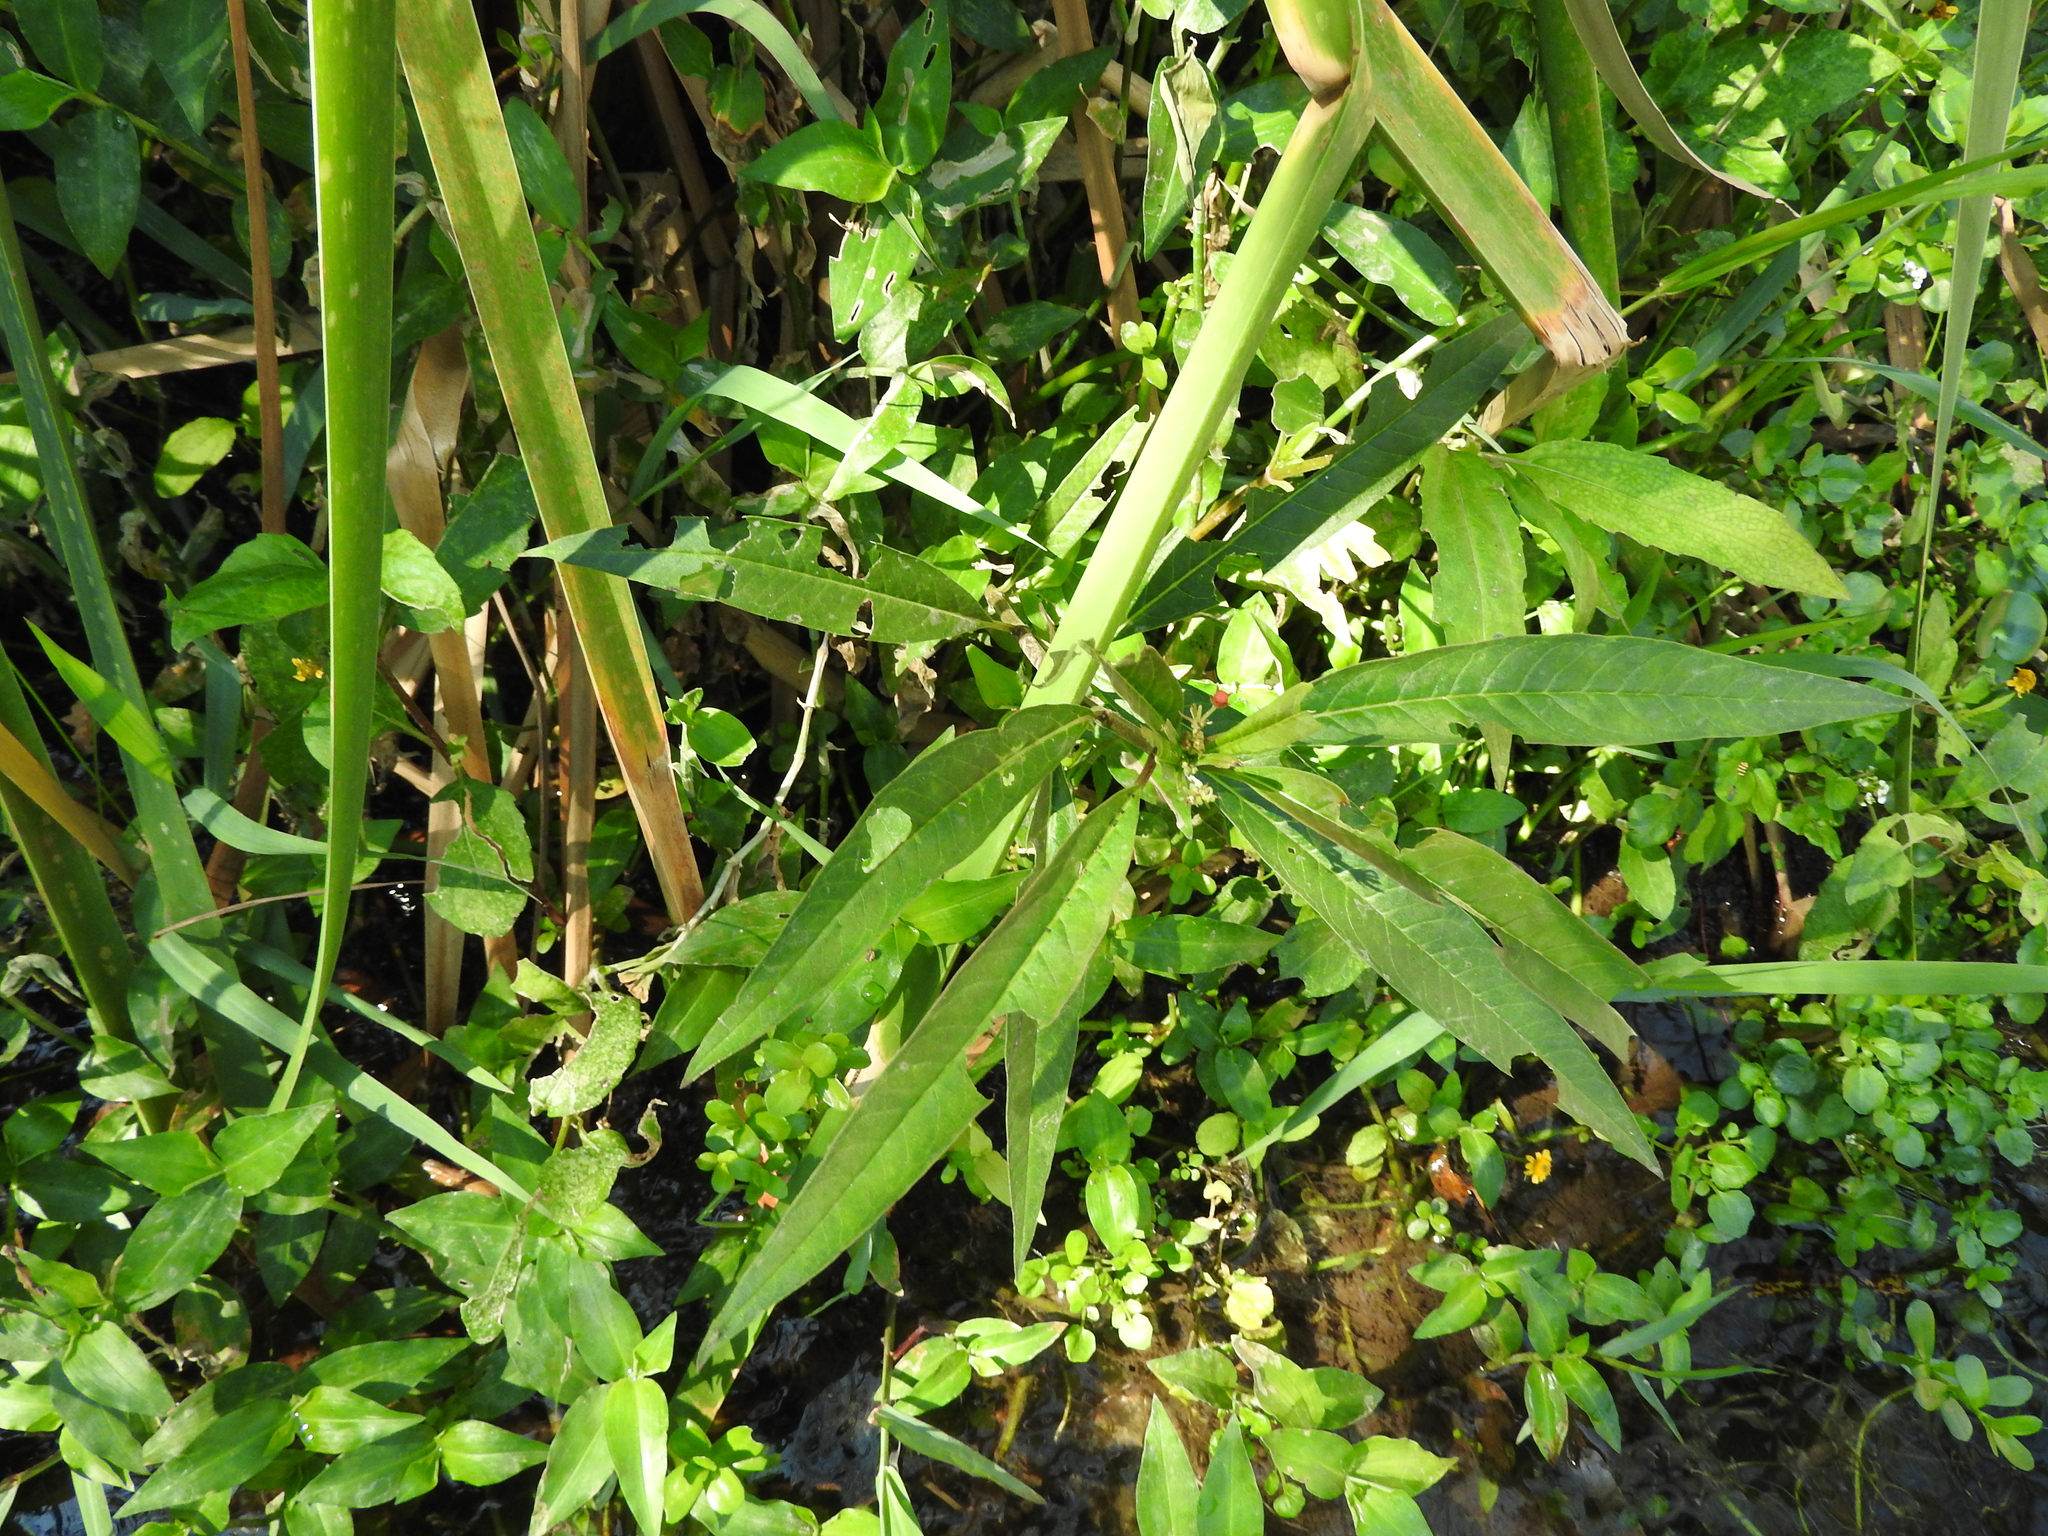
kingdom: Plantae
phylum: Tracheophyta
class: Magnoliopsida
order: Gentianales
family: Apocynaceae
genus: Asclepias
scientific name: Asclepias curassavica
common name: Bloodflower
